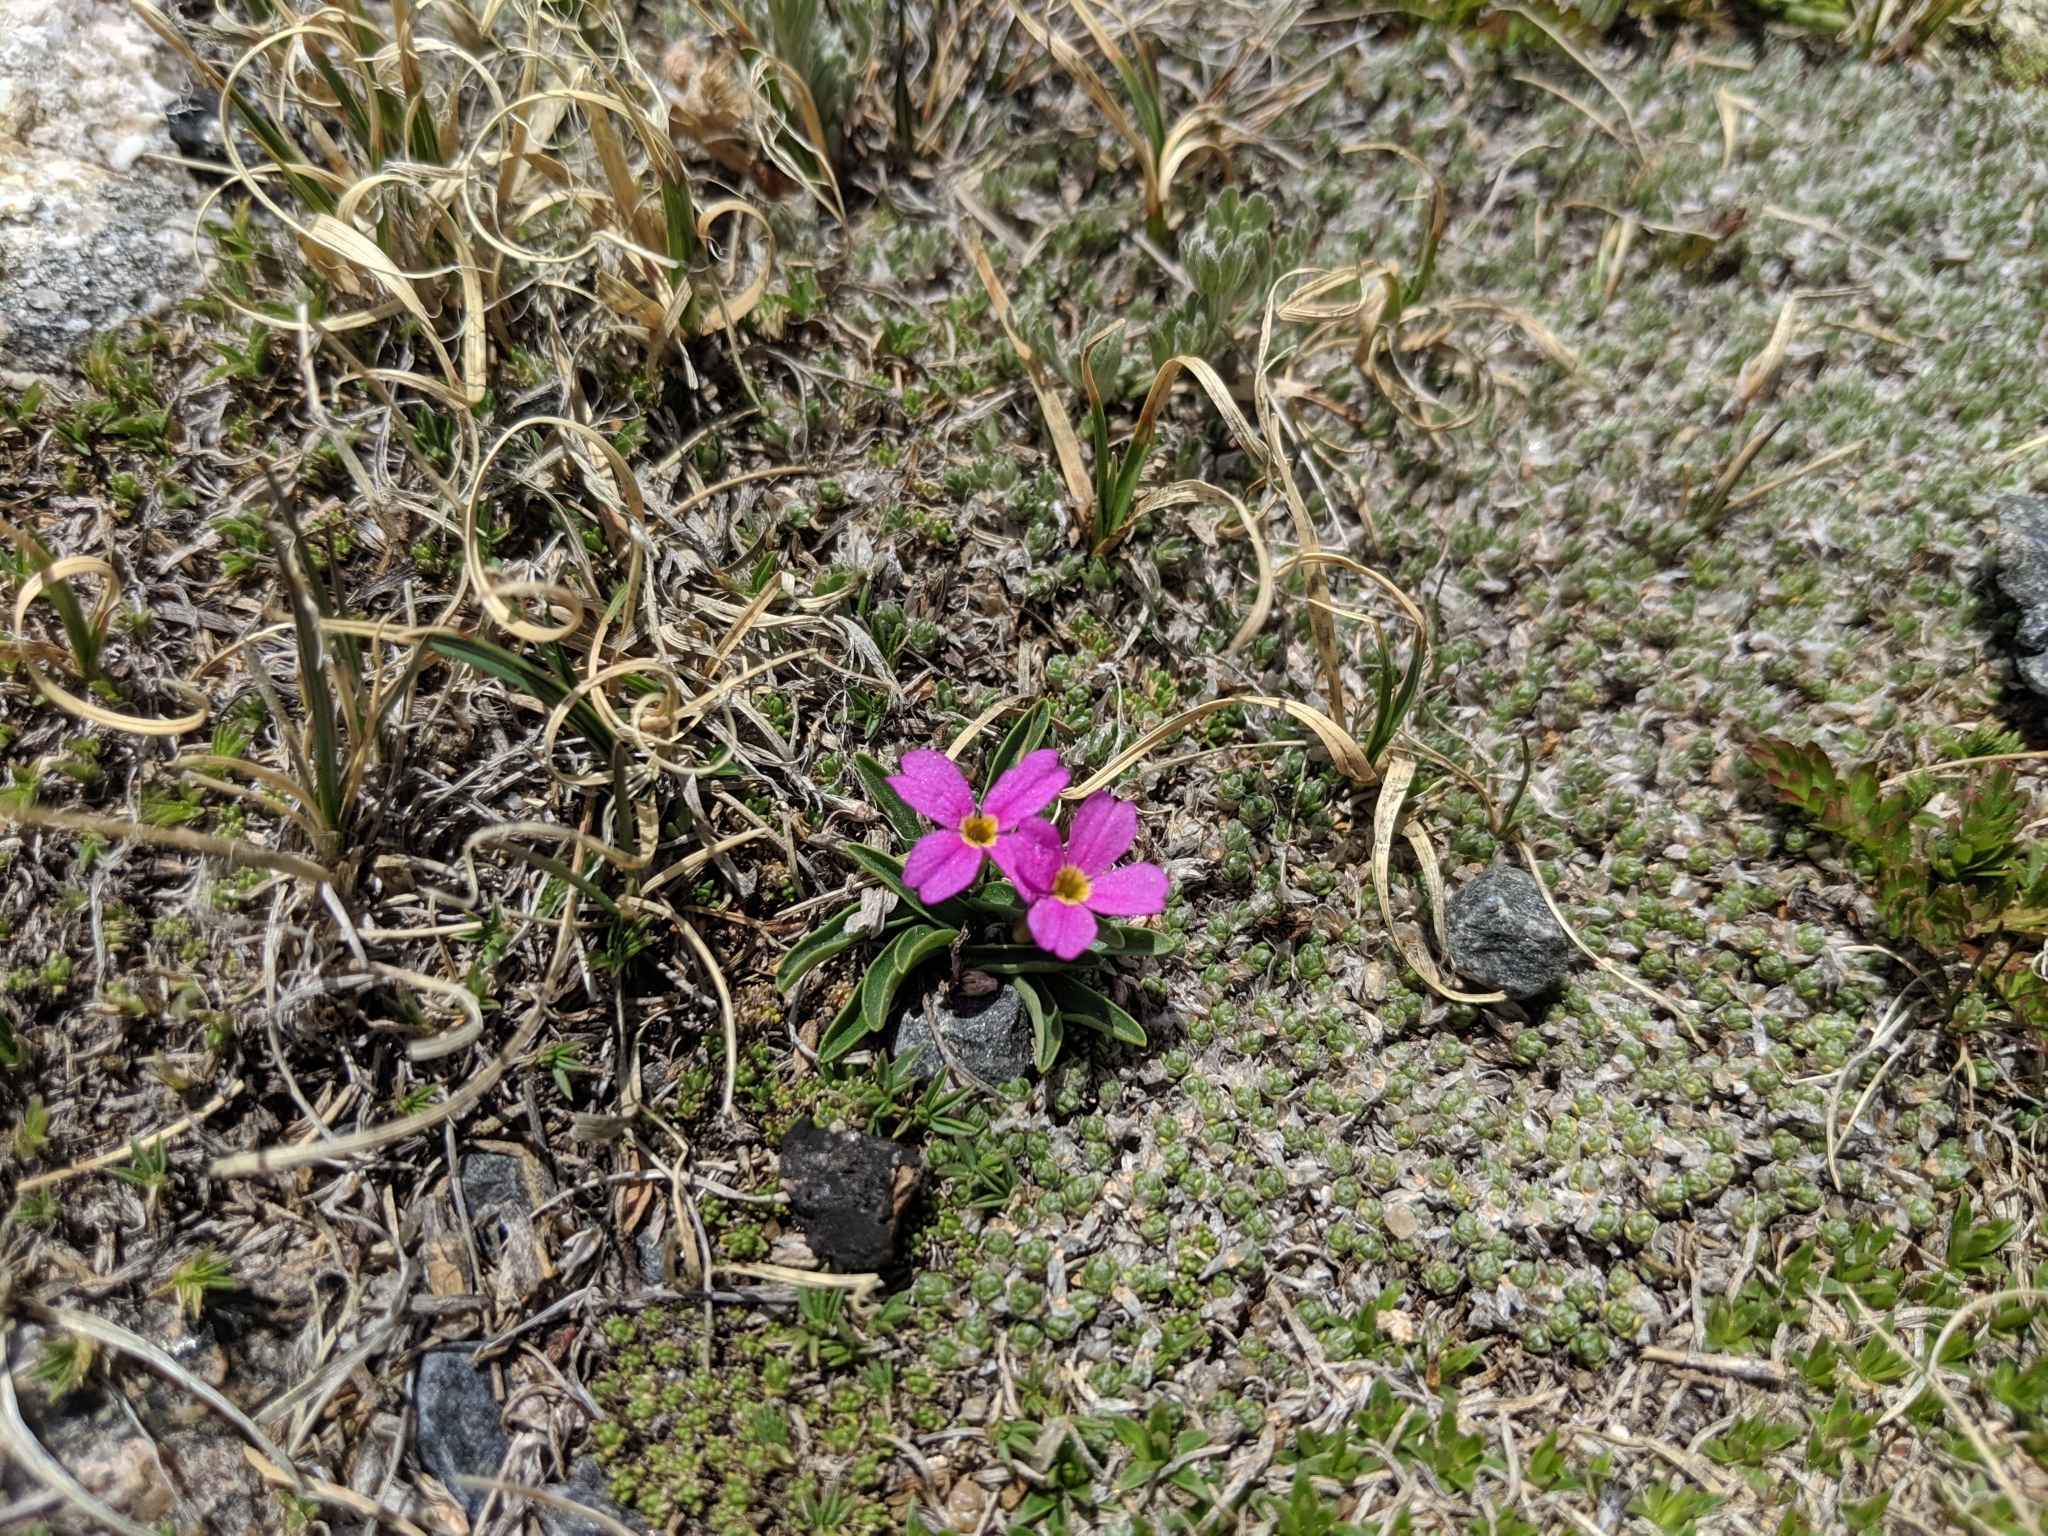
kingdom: Plantae
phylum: Tracheophyta
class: Magnoliopsida
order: Ericales
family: Primulaceae
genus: Primula
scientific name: Primula angustifolia
